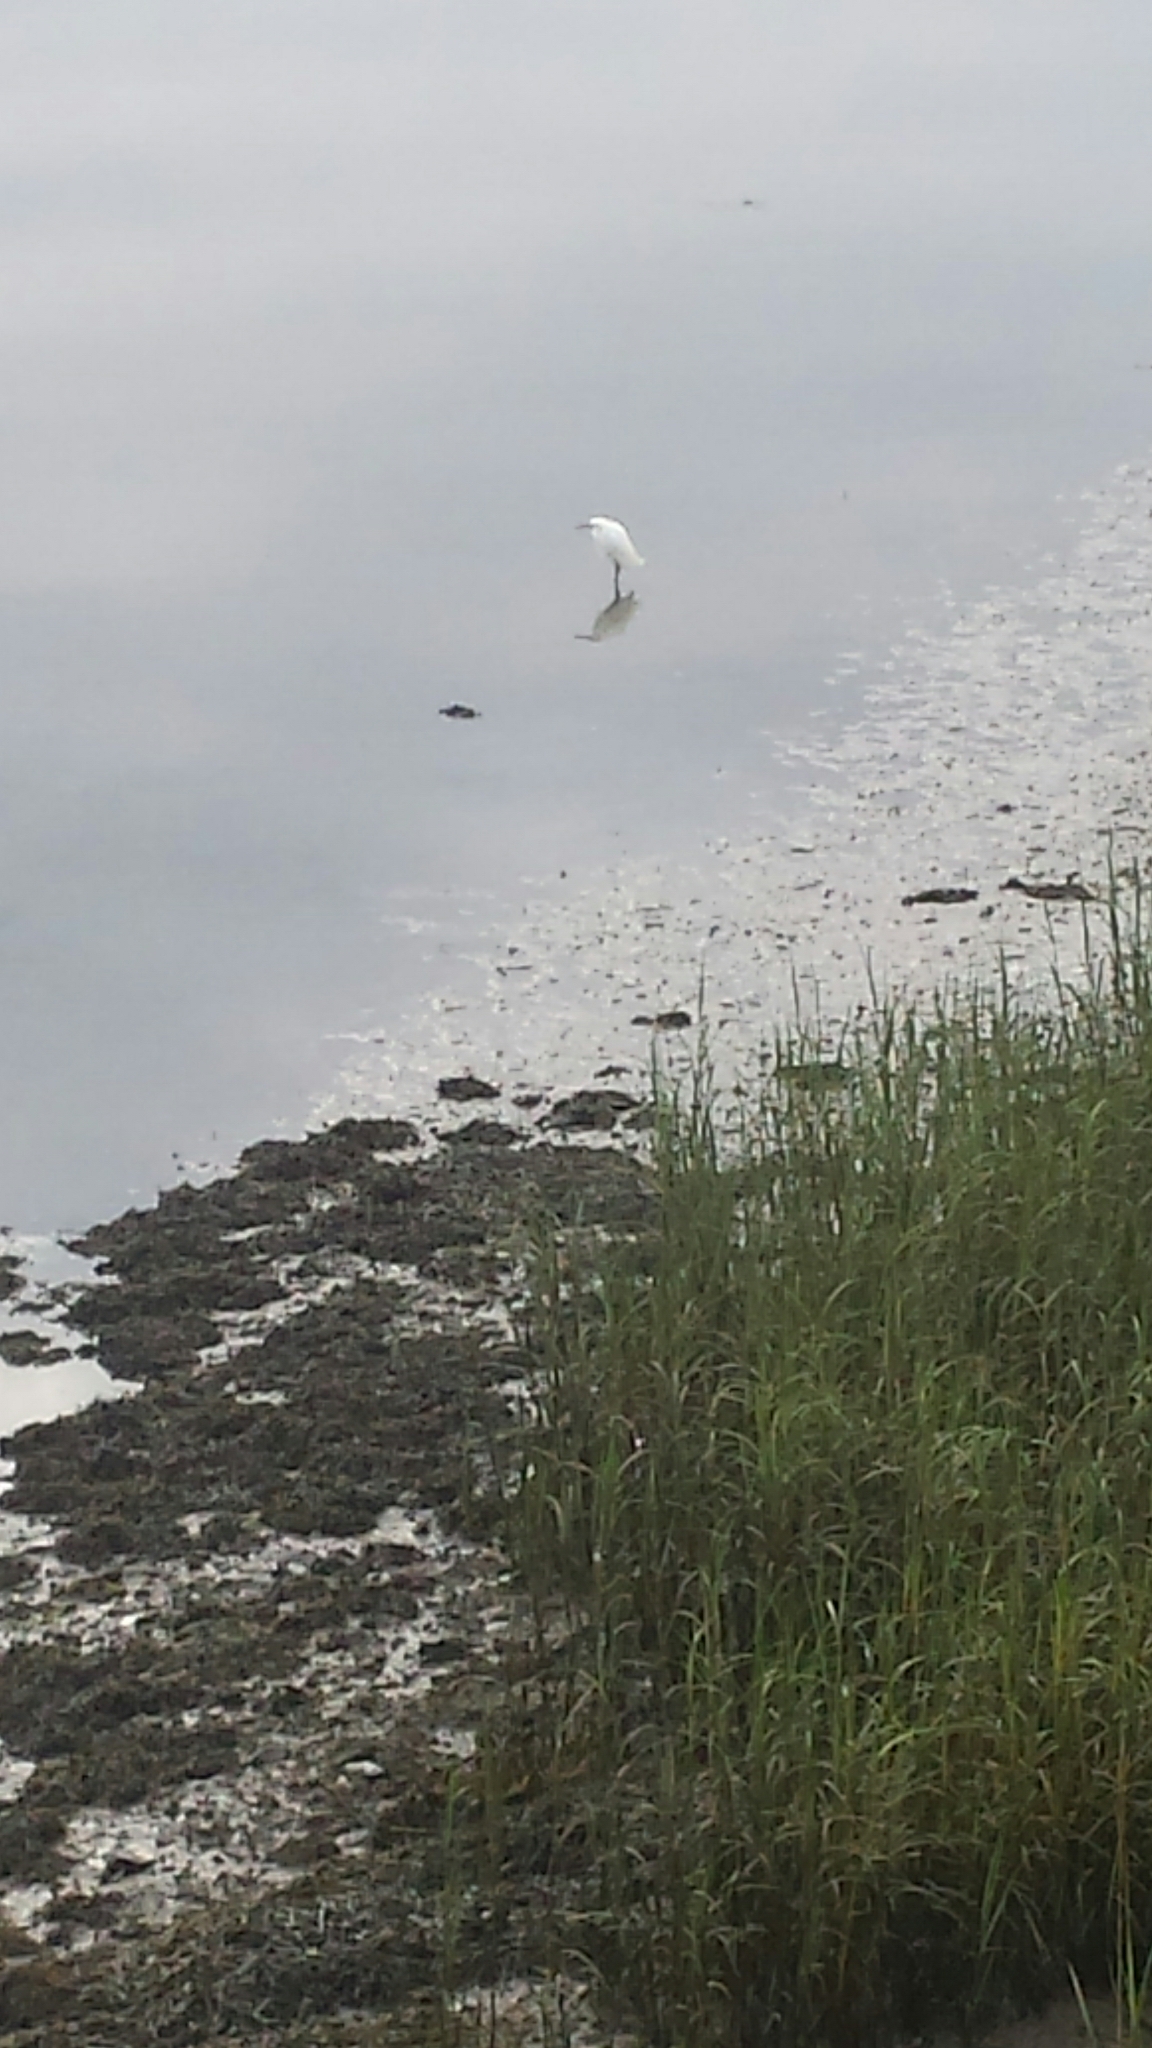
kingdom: Animalia
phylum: Chordata
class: Aves
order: Pelecaniformes
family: Ardeidae
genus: Egretta
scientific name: Egretta thula
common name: Snowy egret
